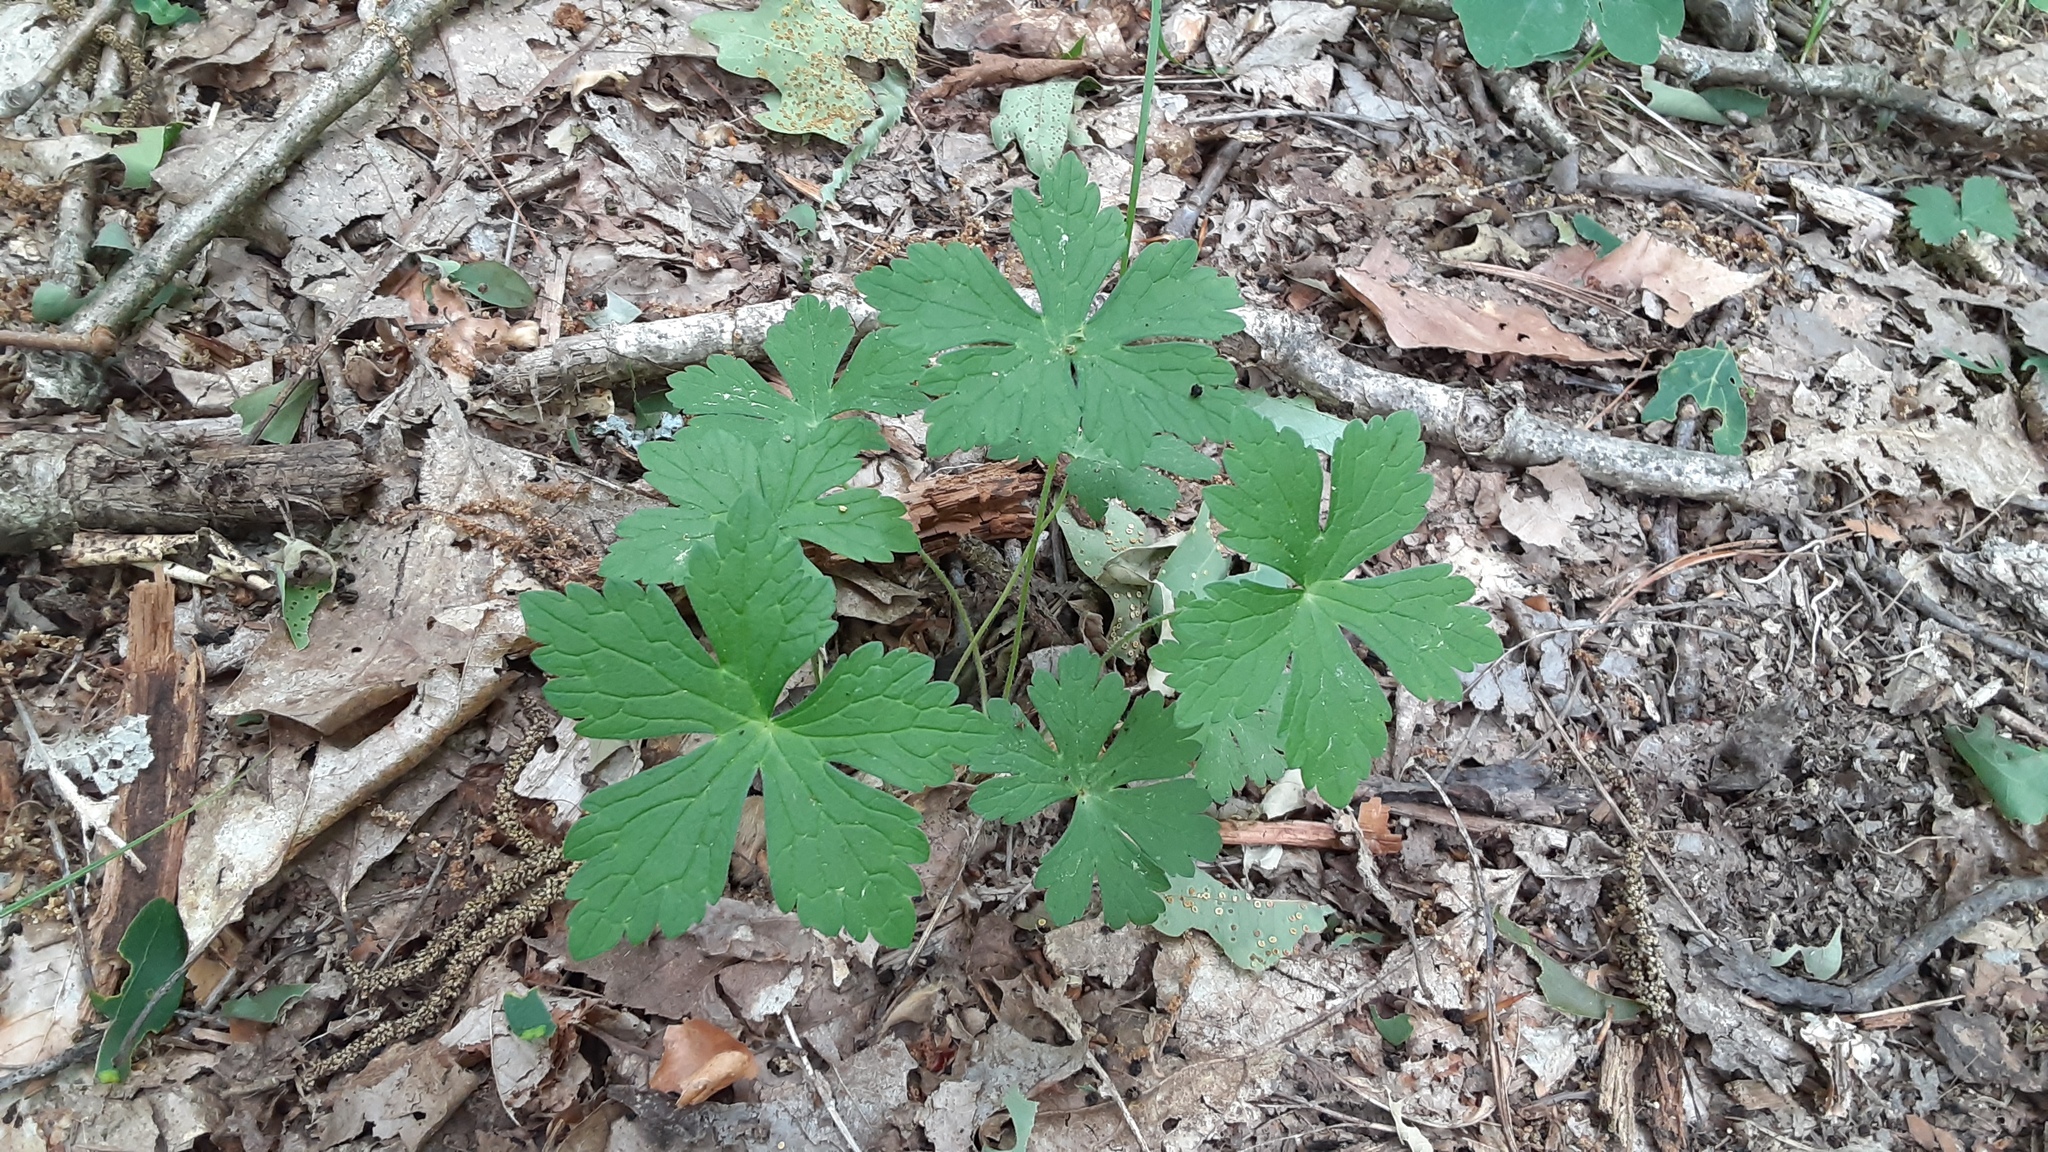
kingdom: Plantae
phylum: Tracheophyta
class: Magnoliopsida
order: Geraniales
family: Geraniaceae
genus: Geranium
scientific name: Geranium maculatum
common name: Spotted geranium
